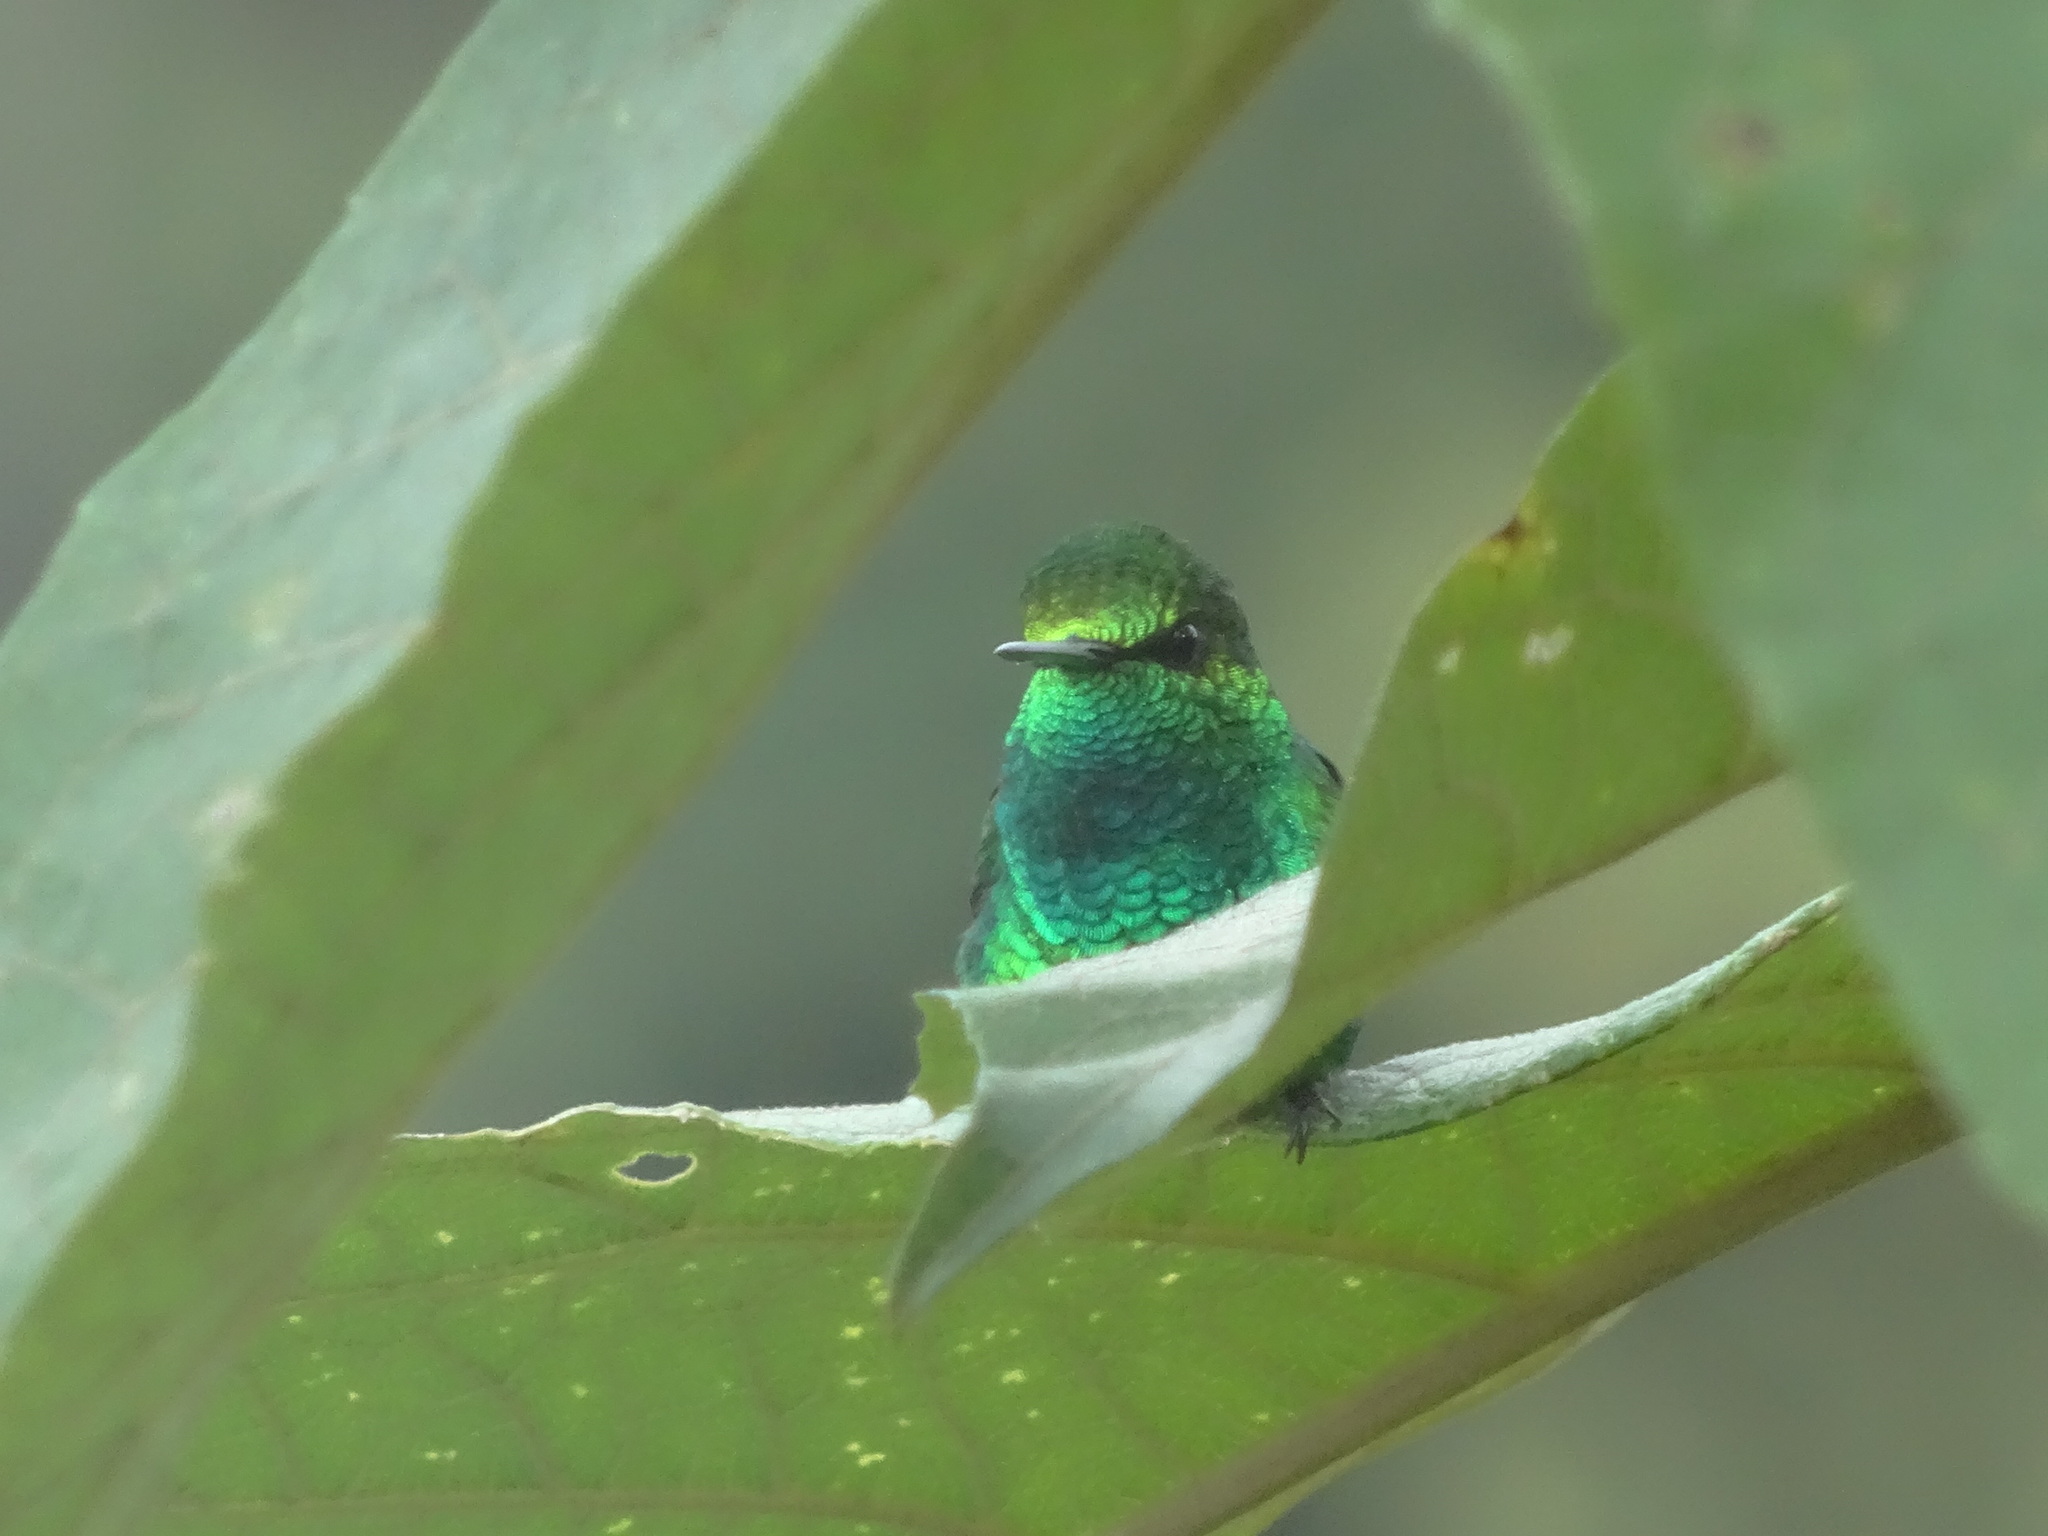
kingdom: Animalia
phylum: Chordata
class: Aves
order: Apodiformes
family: Trochilidae
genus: Chlorostilbon
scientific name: Chlorostilbon melanorhynchus
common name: Western emerald
